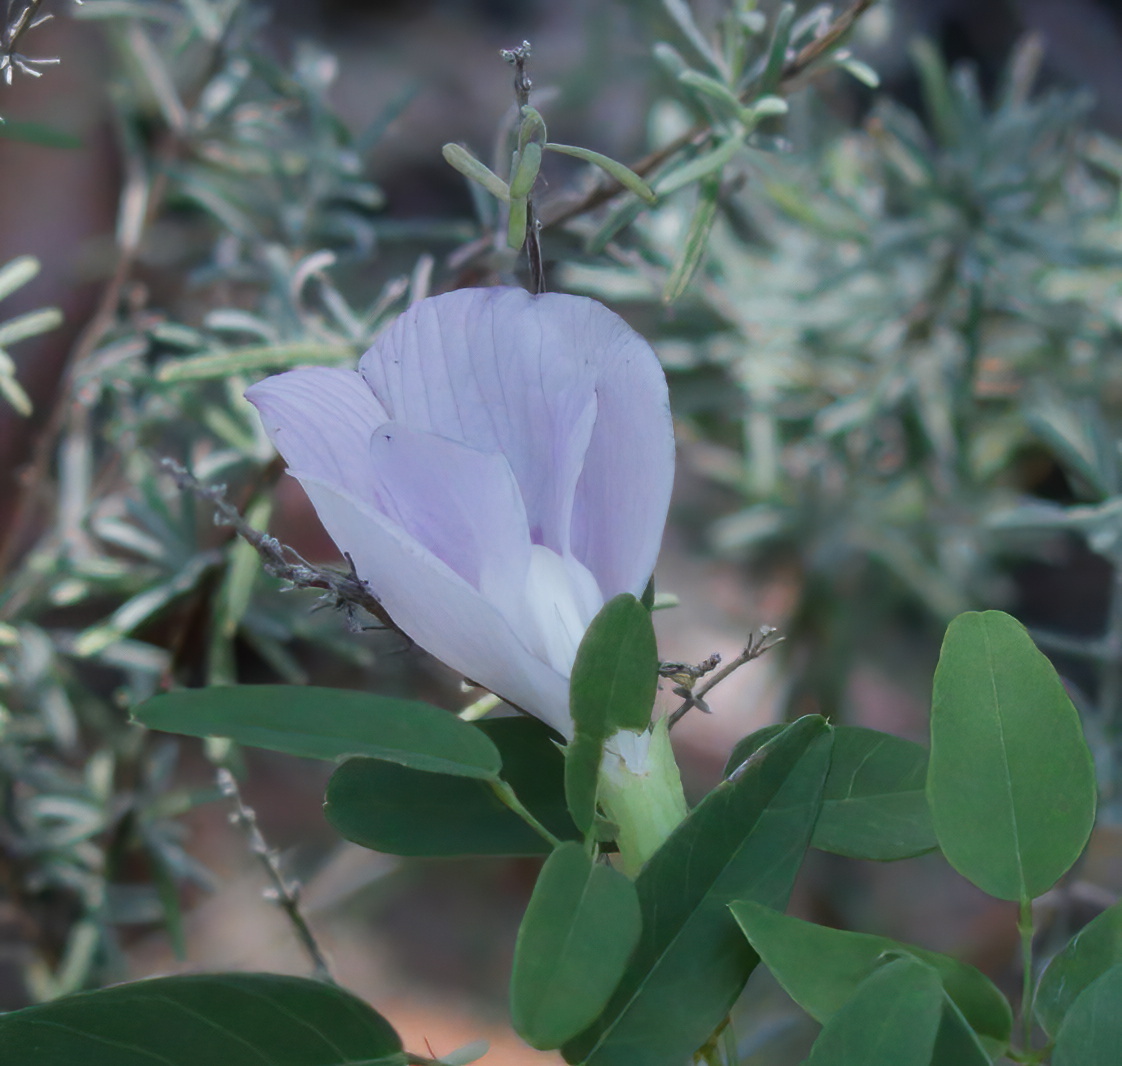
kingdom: Plantae
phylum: Tracheophyta
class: Magnoliopsida
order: Fabales
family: Fabaceae
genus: Clitoria
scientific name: Clitoria mariana
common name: Butterfly-pea
